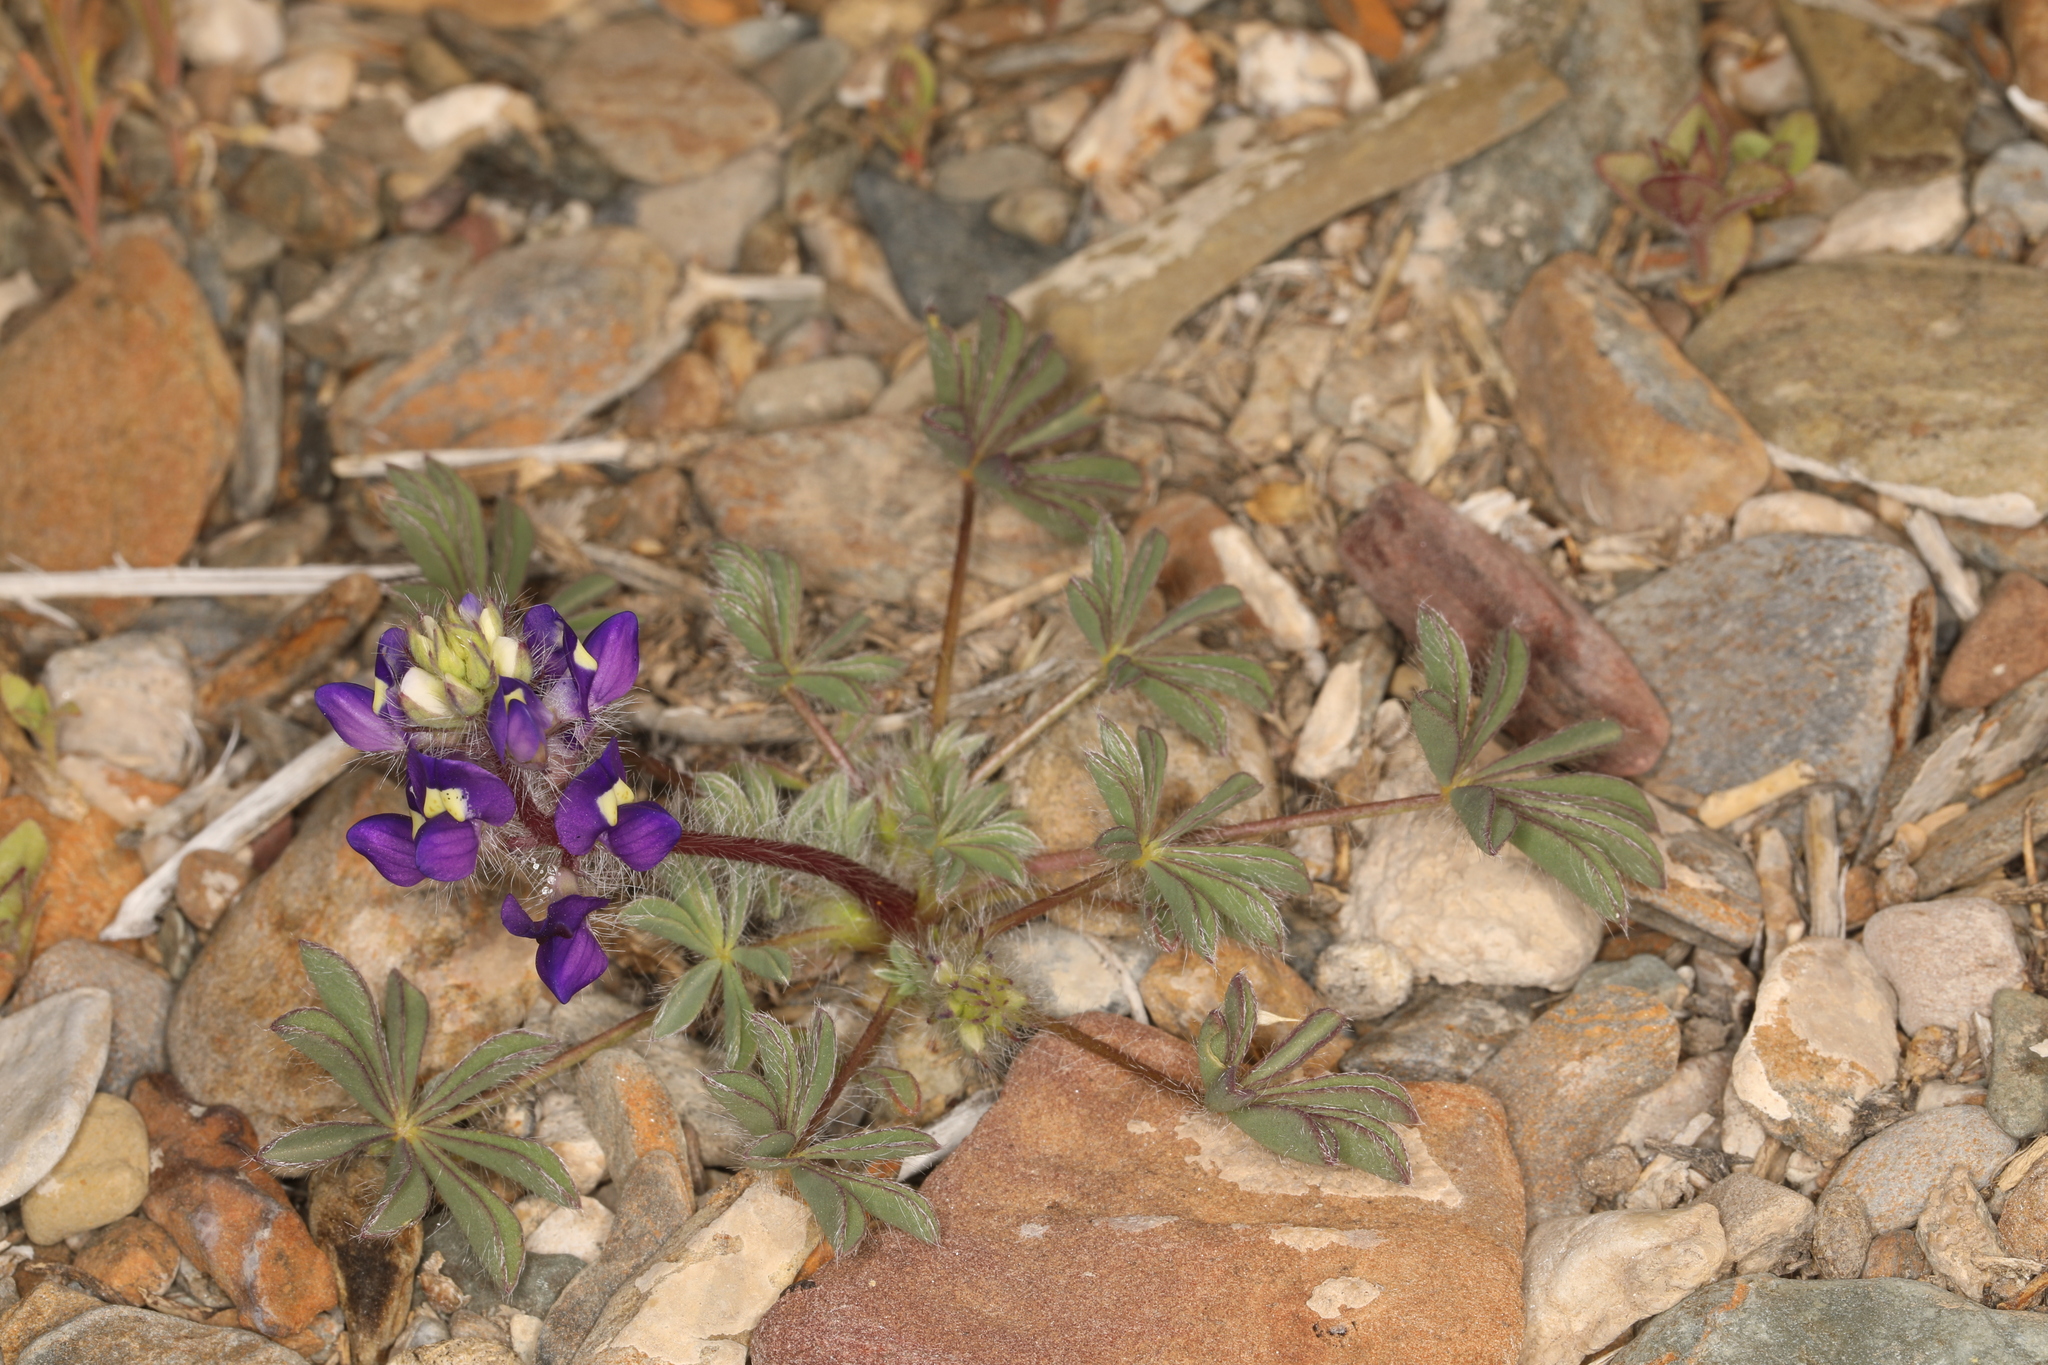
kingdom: Plantae
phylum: Tracheophyta
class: Magnoliopsida
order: Fabales
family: Fabaceae
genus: Lupinus
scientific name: Lupinus flavoculatus
